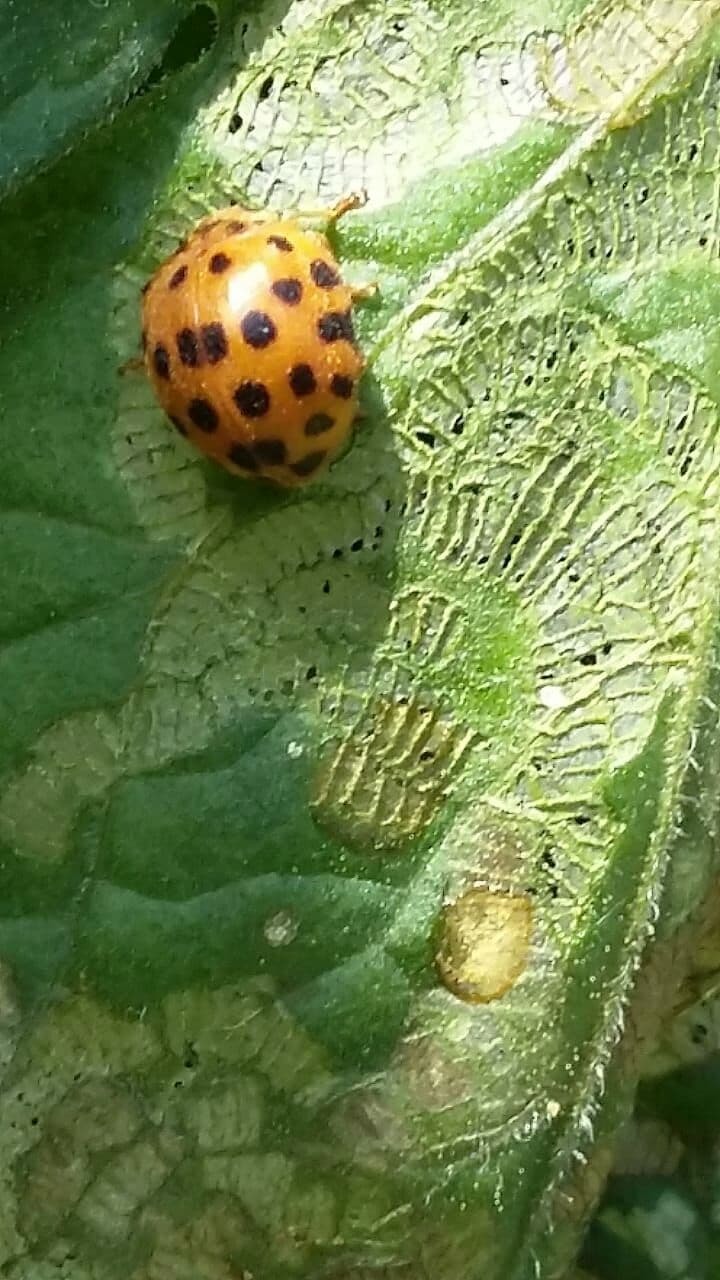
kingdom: Animalia
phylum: Arthropoda
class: Insecta
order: Coleoptera
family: Coccinellidae
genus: Henosepilachna
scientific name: Henosepilachna vigintioctopunctata
